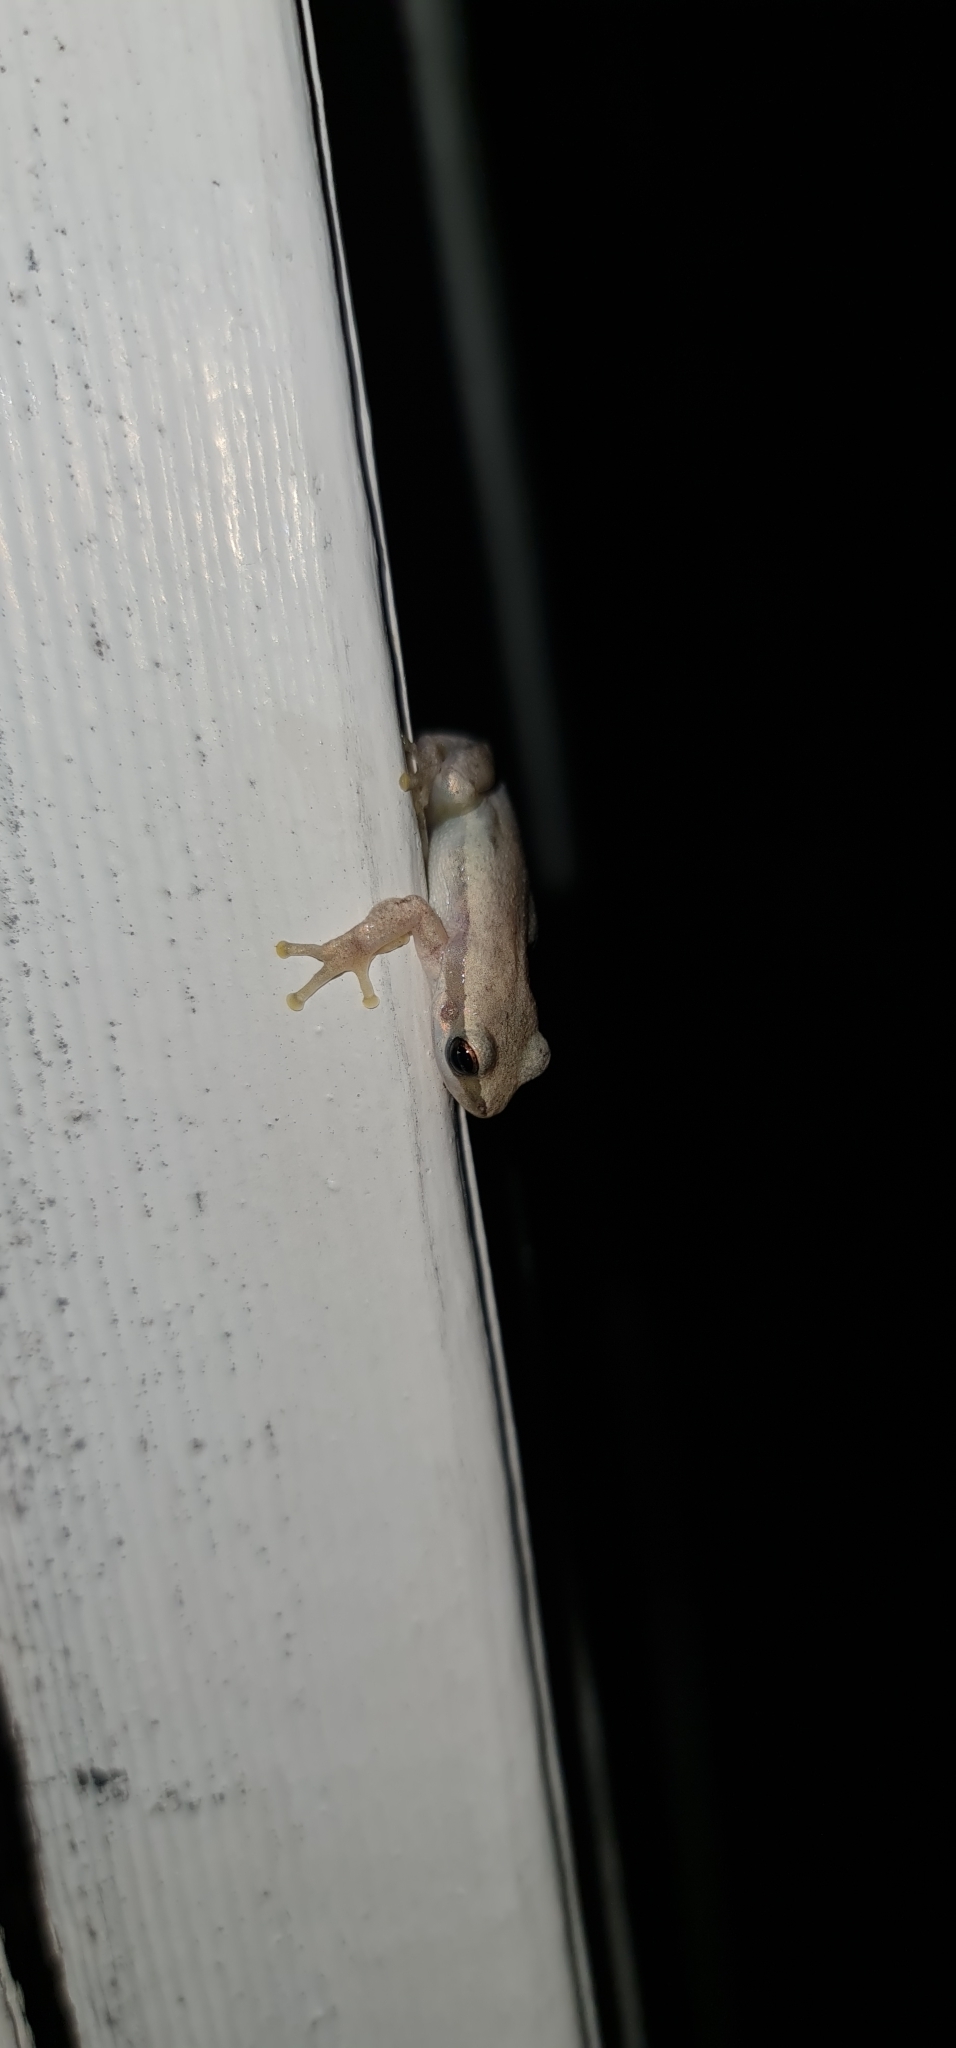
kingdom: Animalia
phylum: Chordata
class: Amphibia
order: Anura
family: Pelodryadidae
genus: Litoria
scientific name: Litoria rubella
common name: Desert tree frog
